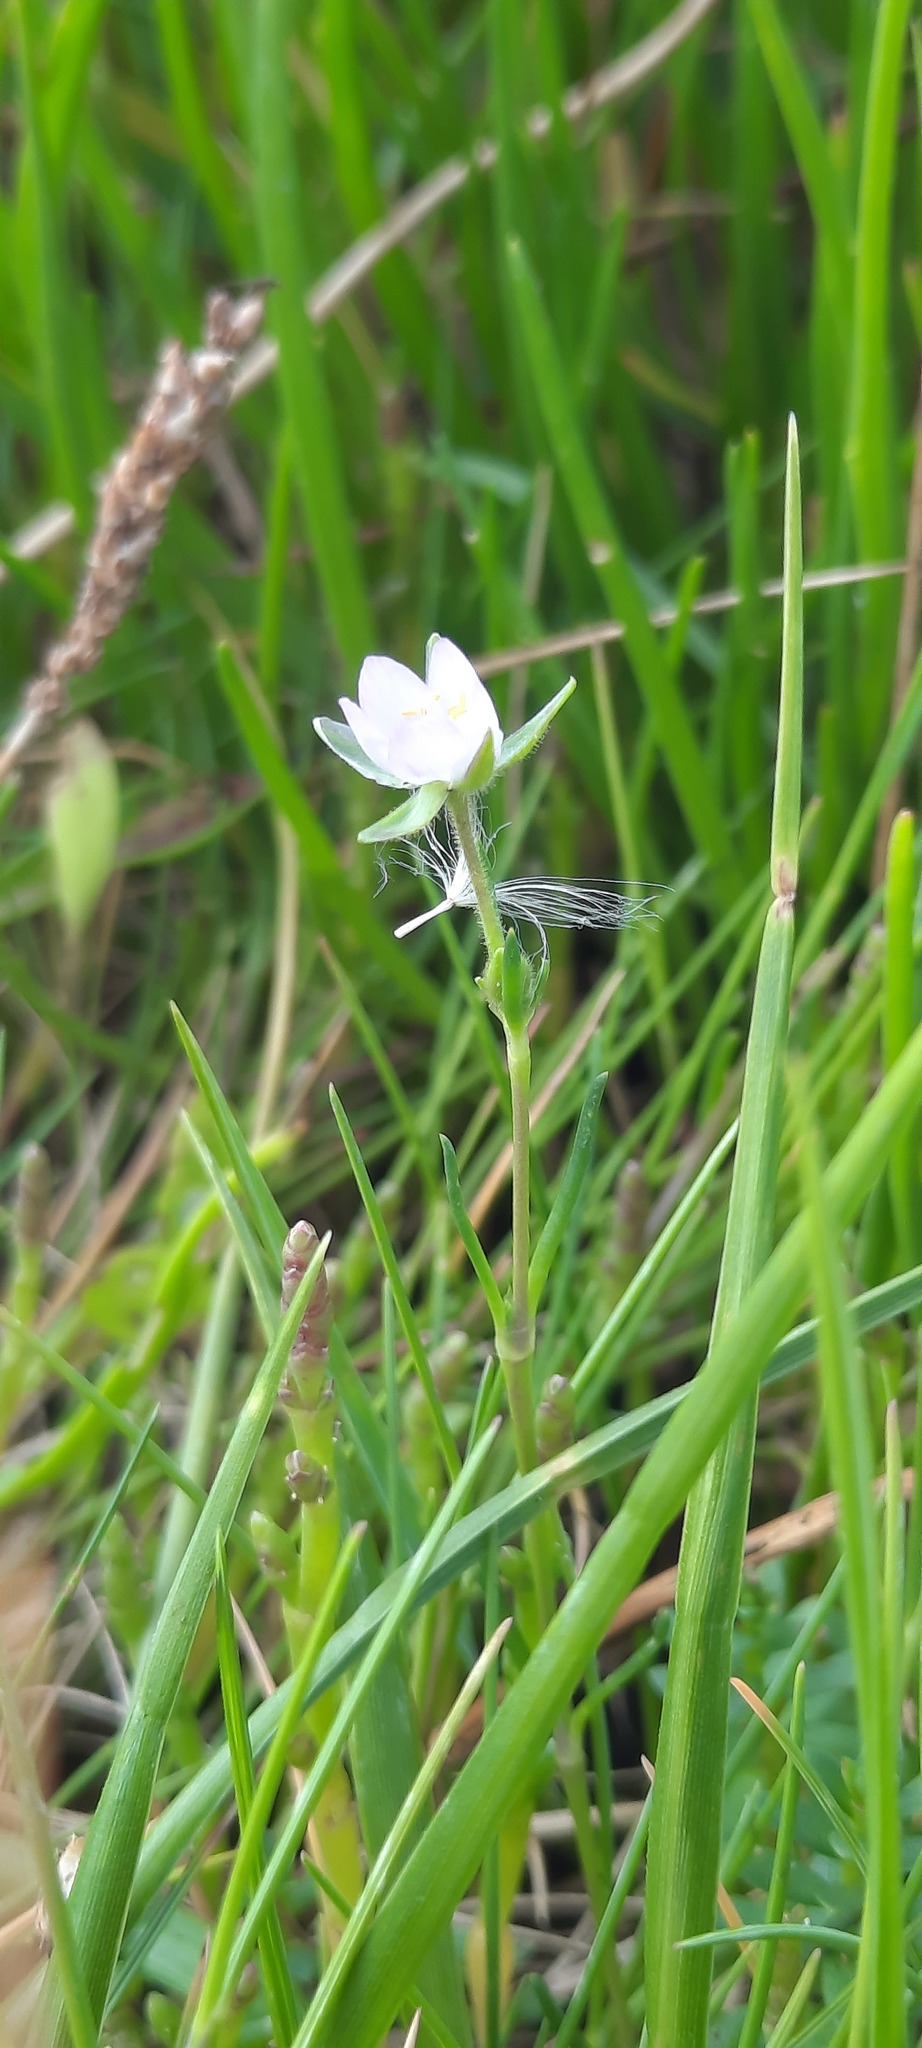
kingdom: Plantae
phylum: Tracheophyta
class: Magnoliopsida
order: Caryophyllales
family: Caryophyllaceae
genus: Spergularia
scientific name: Spergularia marina
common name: Lesser sea-spurrey
